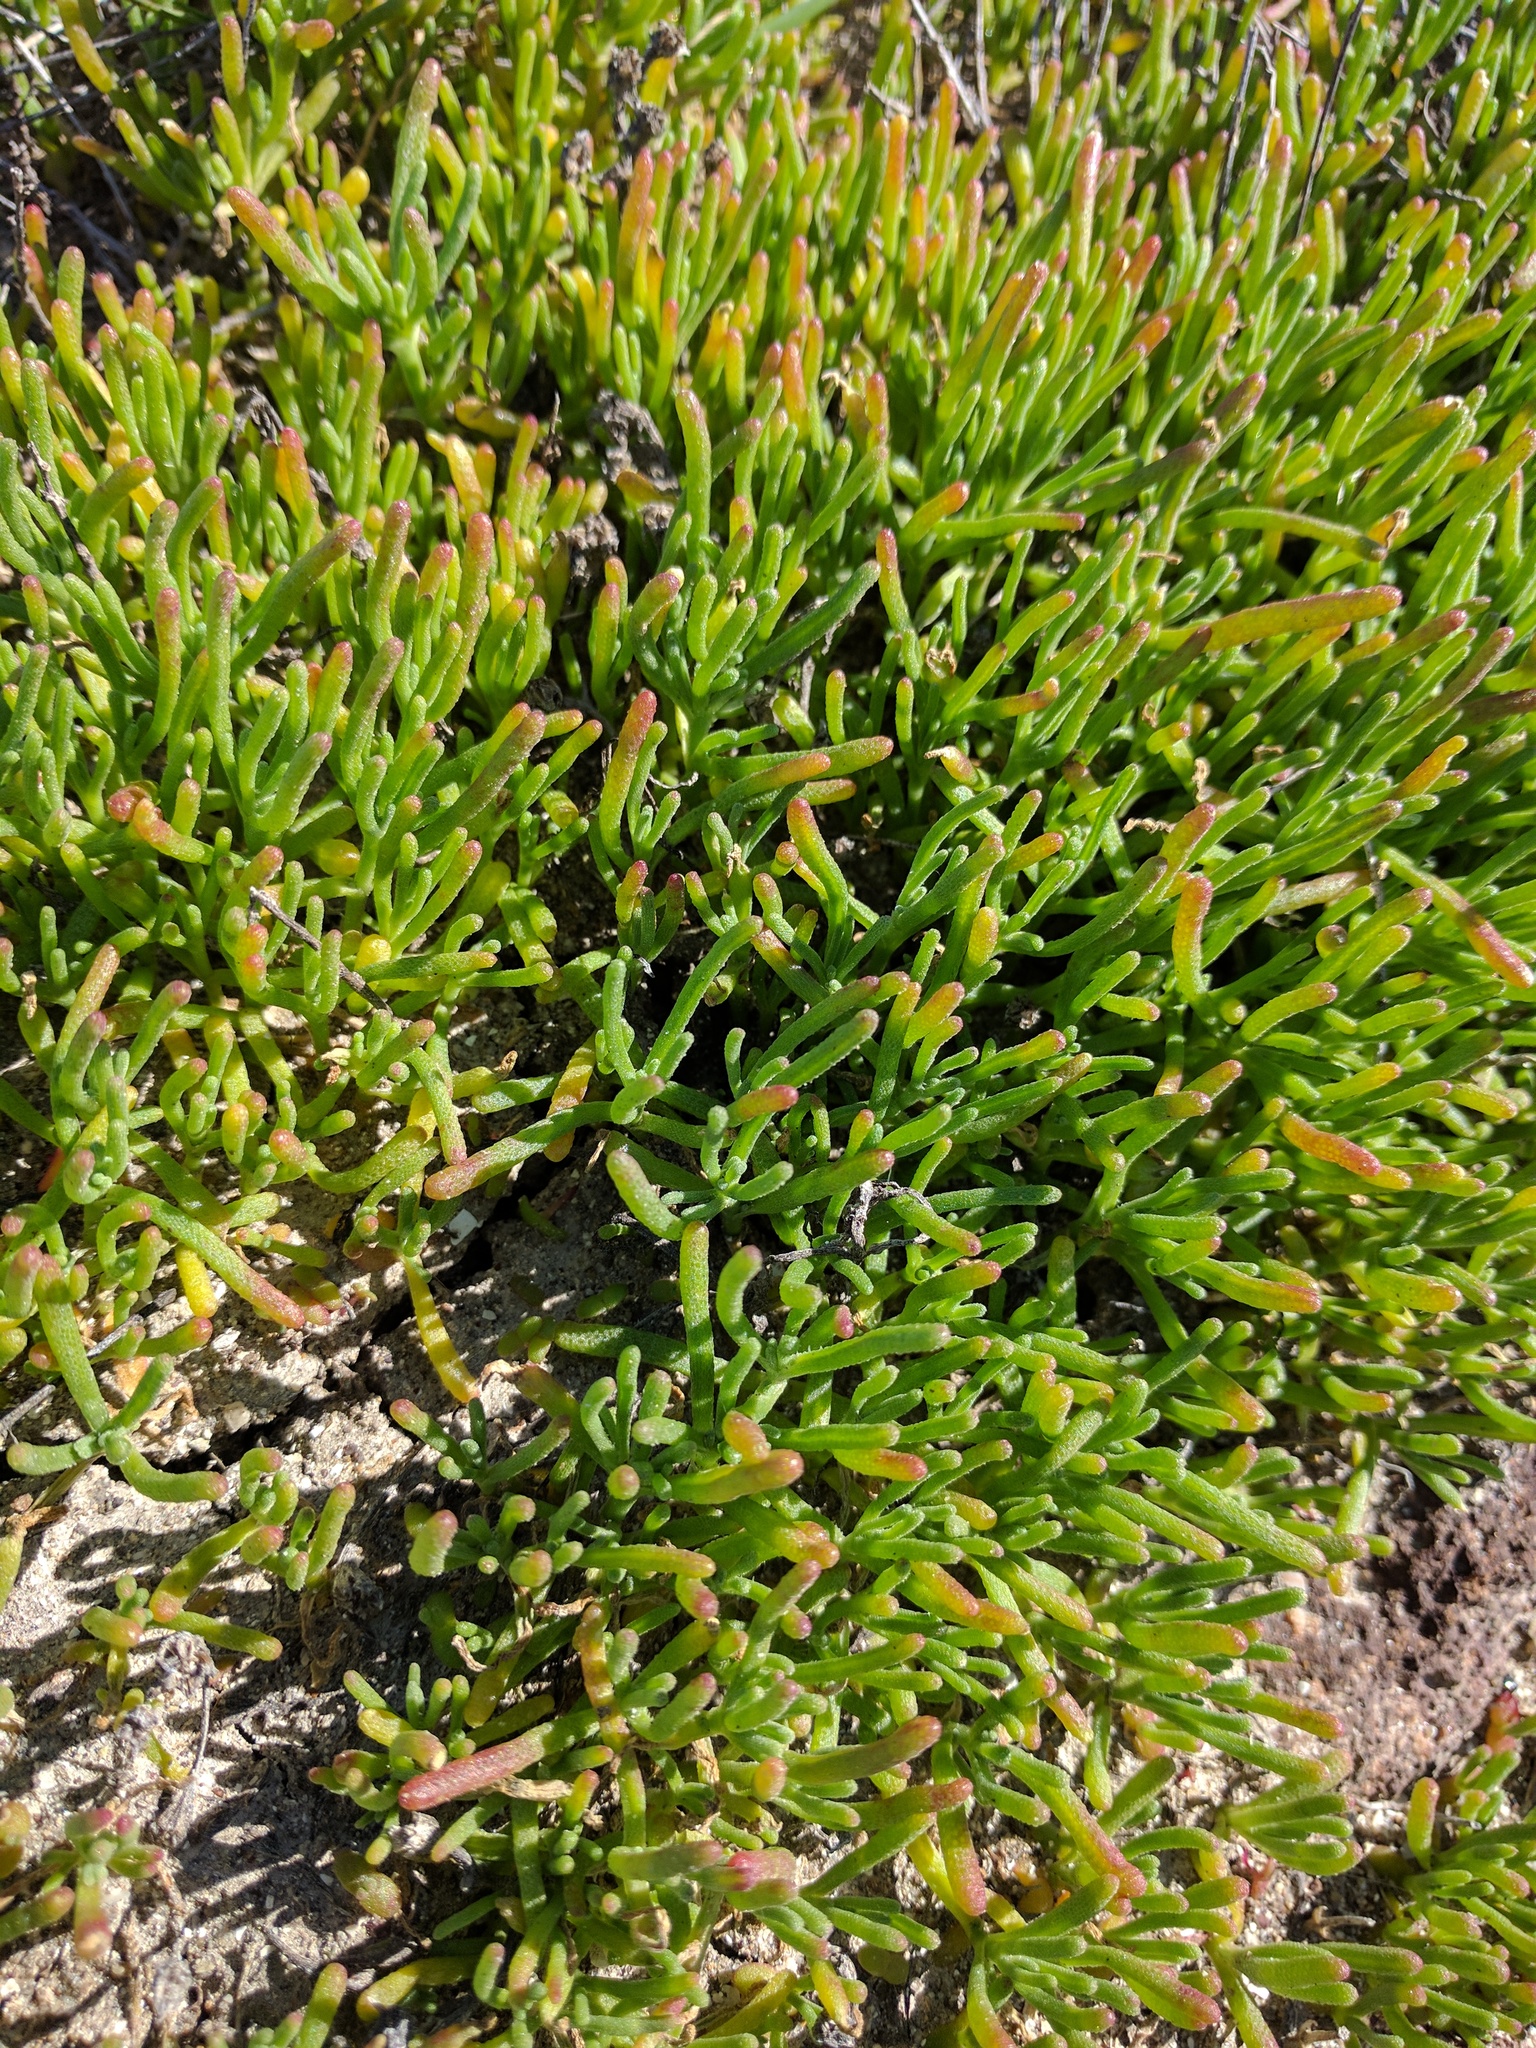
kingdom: Plantae
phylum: Tracheophyta
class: Magnoliopsida
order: Caryophyllales
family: Aizoaceae
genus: Mesembryanthemum
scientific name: Mesembryanthemum nodiflorum
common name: Slenderleaf iceplant
